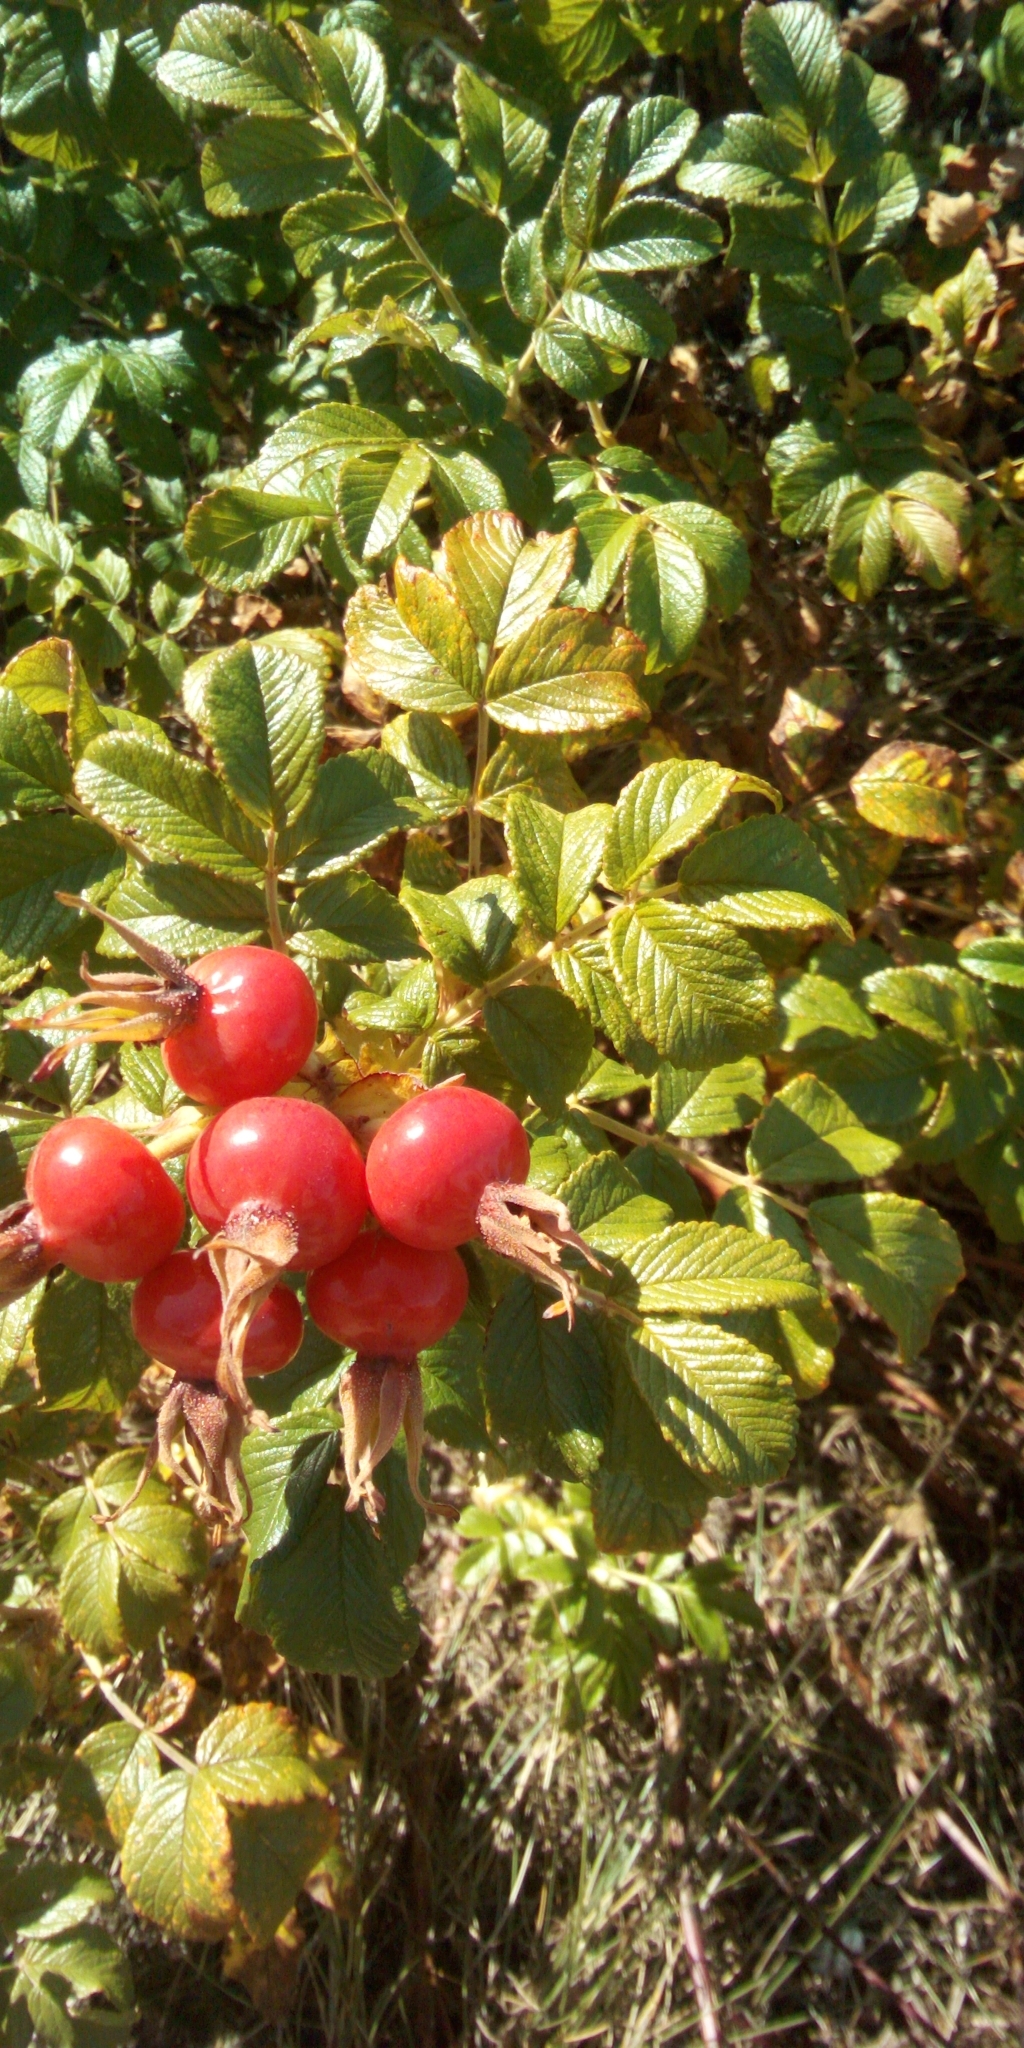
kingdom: Plantae
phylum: Tracheophyta
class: Magnoliopsida
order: Rosales
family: Rosaceae
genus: Rosa
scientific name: Rosa rugosa
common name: Japanese rose
